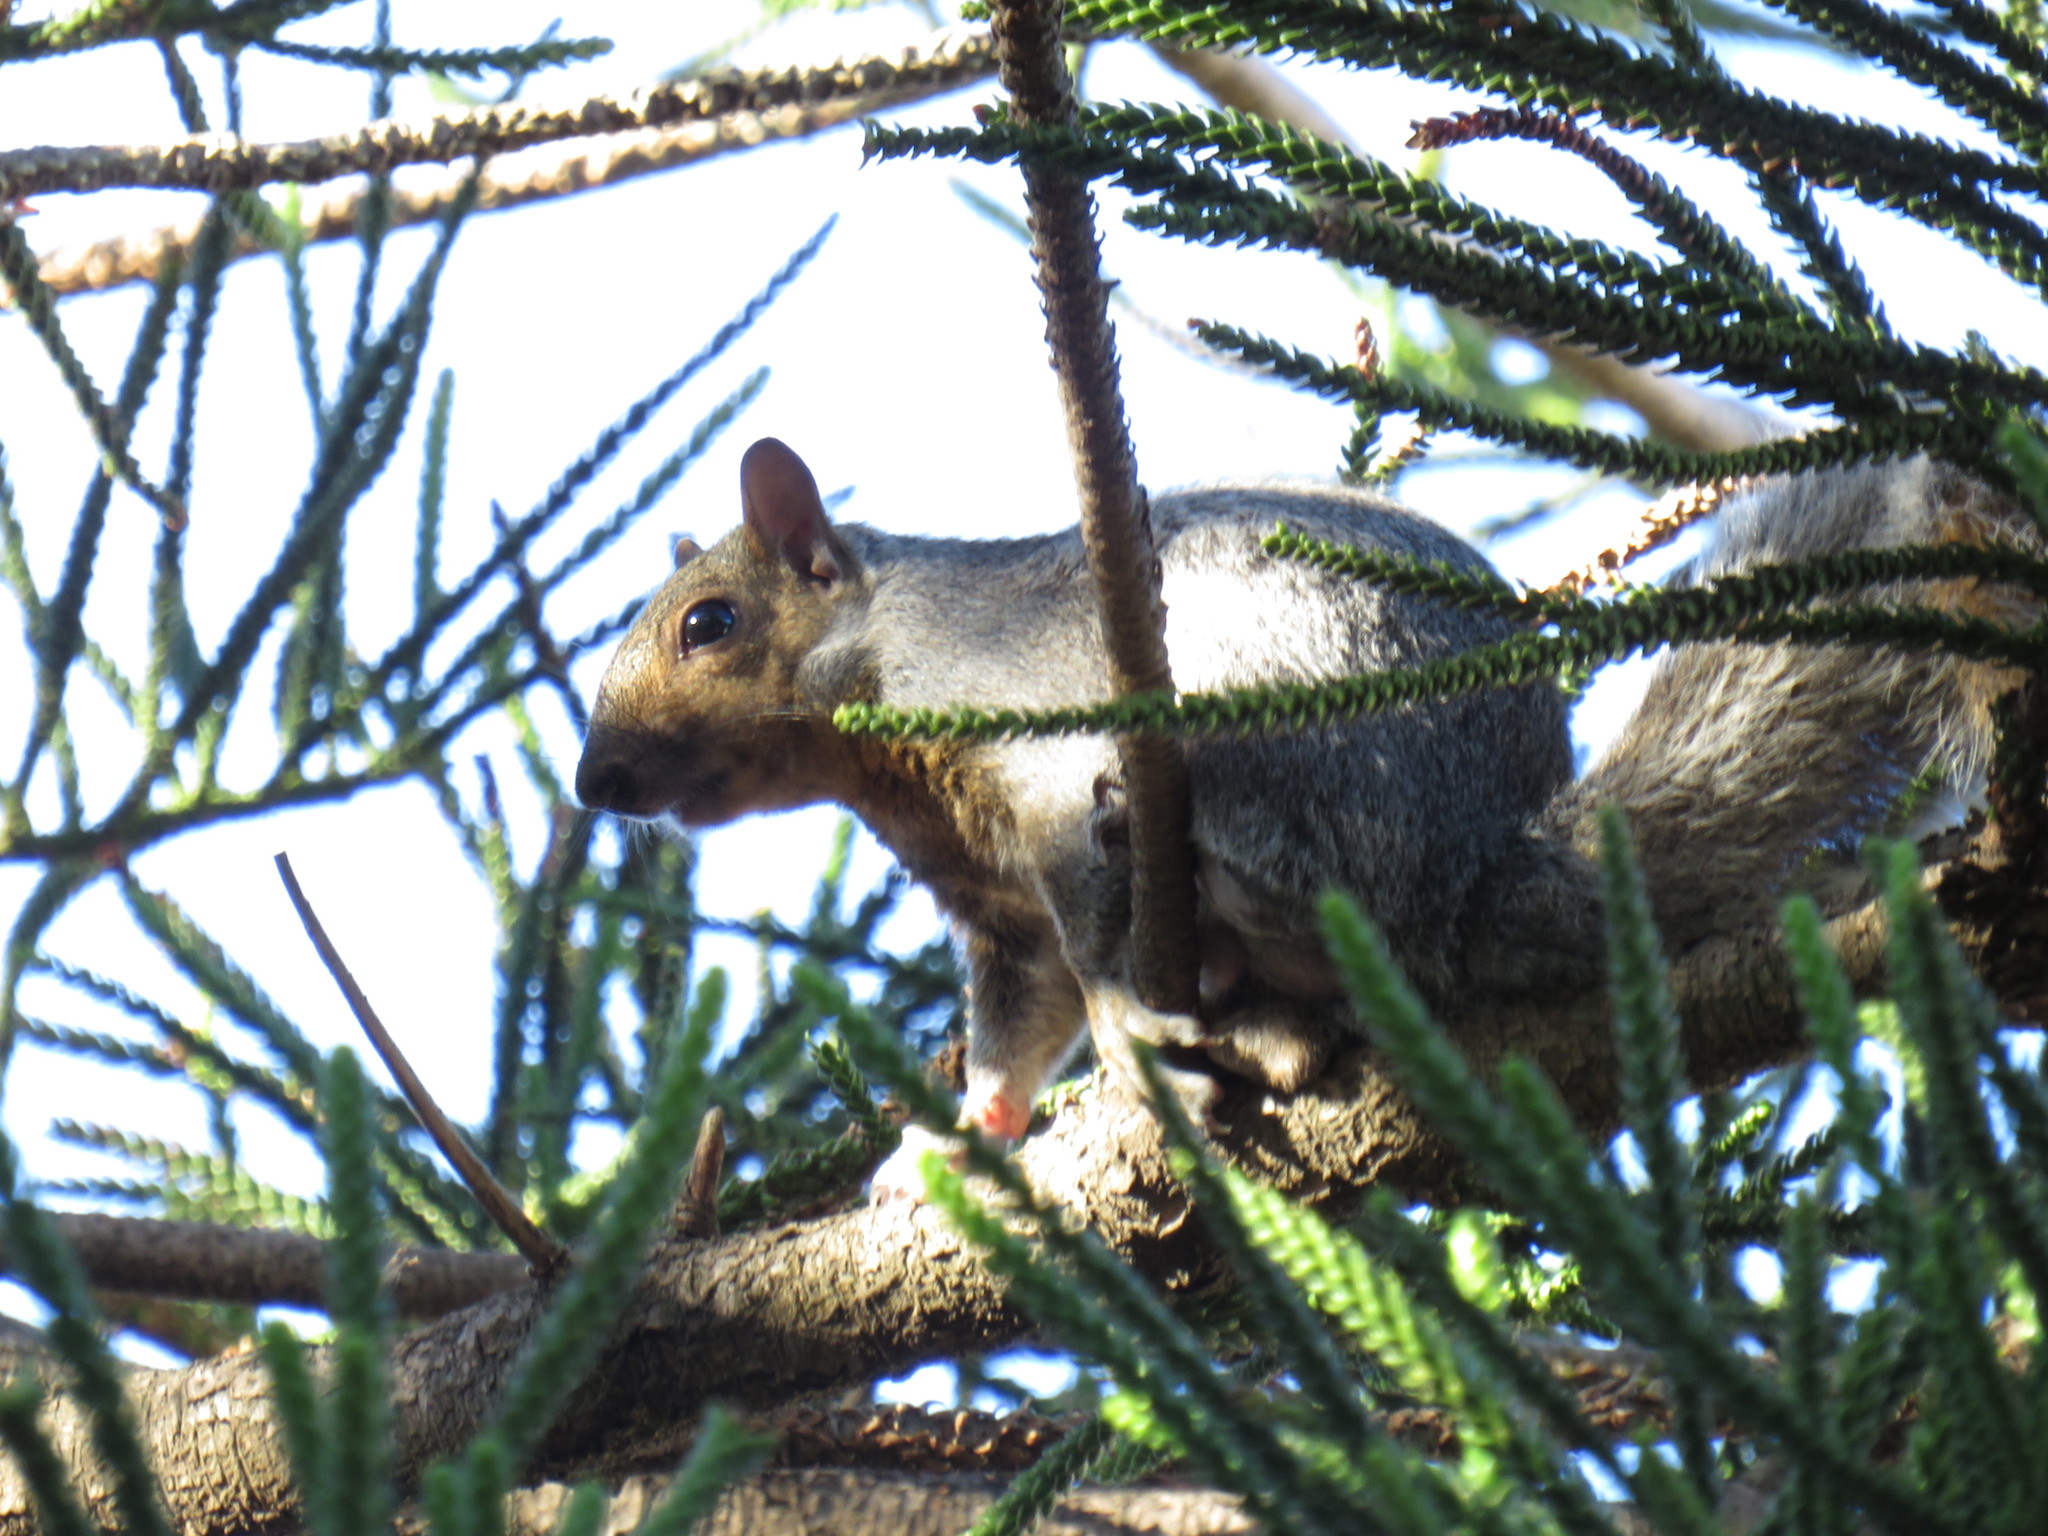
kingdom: Animalia
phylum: Chordata
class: Mammalia
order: Rodentia
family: Sciuridae
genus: Sciurus
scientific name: Sciurus carolinensis
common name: Eastern gray squirrel
